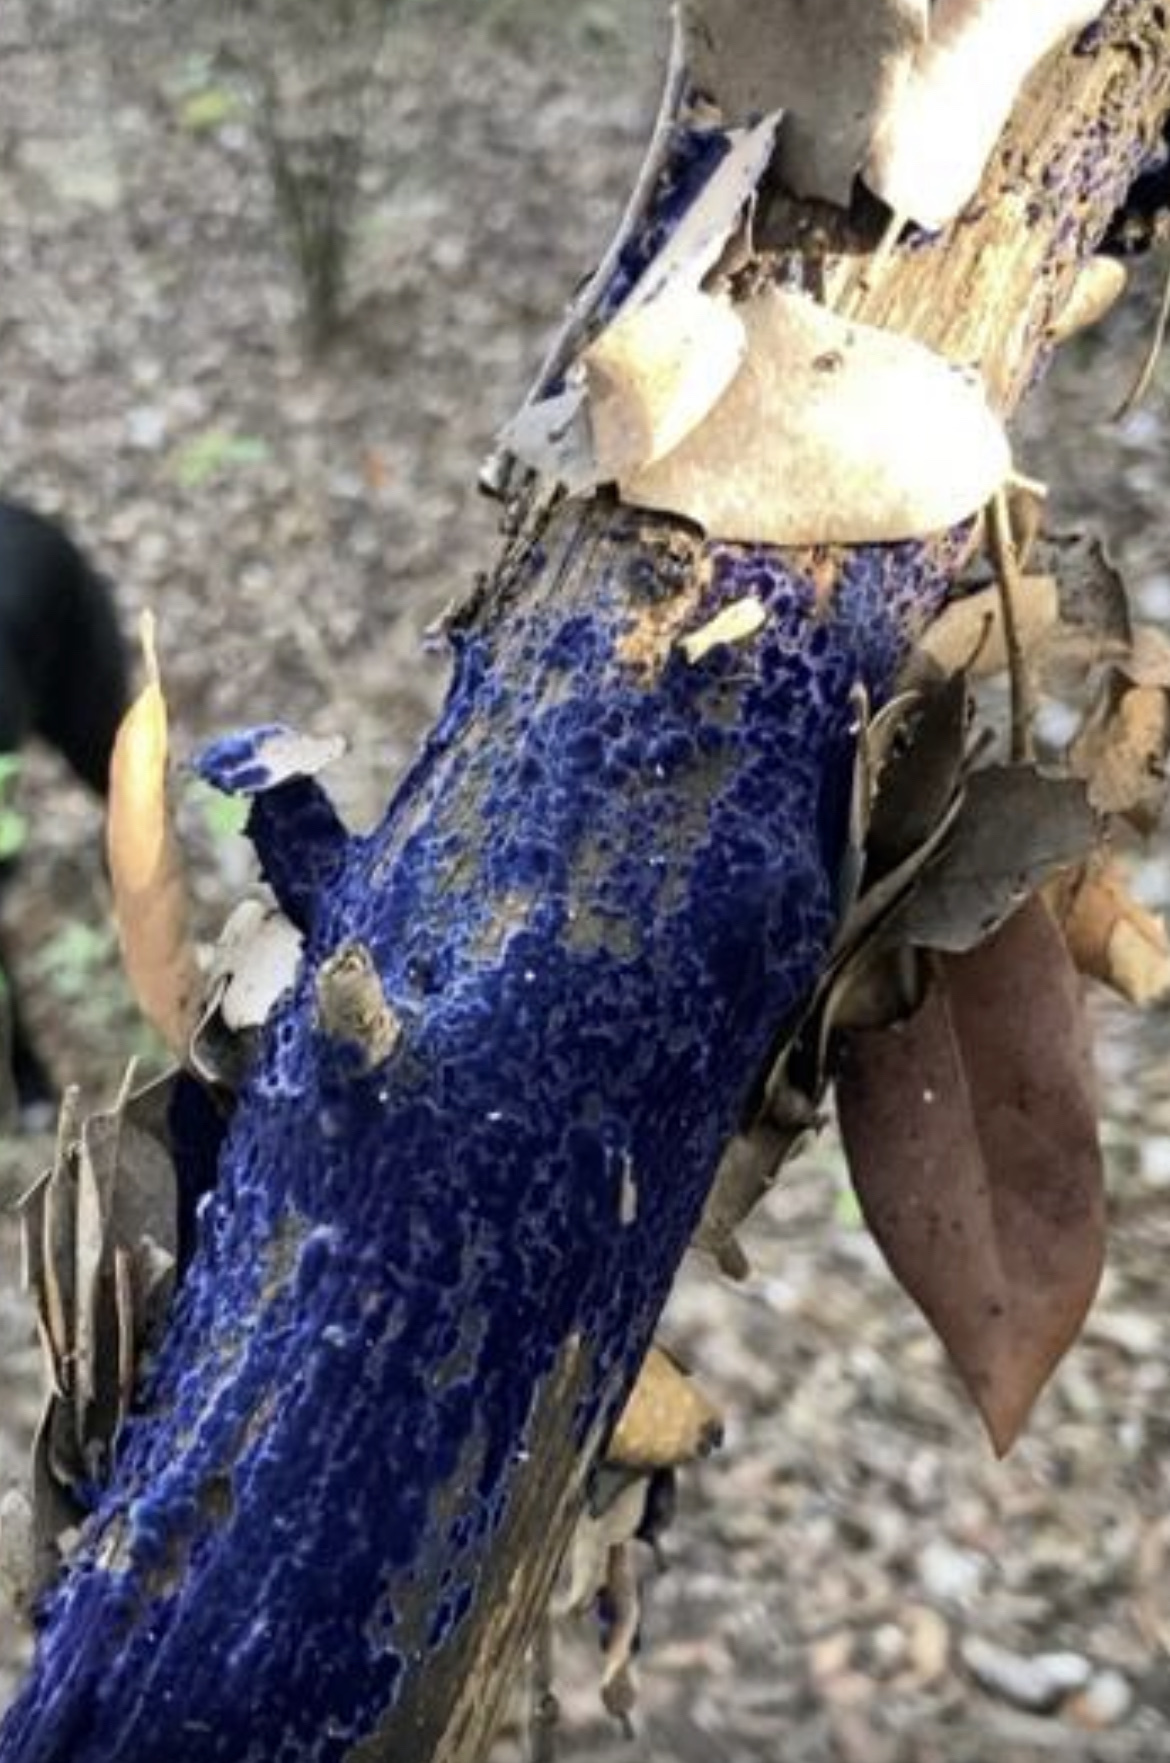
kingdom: Fungi
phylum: Basidiomycota
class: Agaricomycetes
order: Polyporales
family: Phanerochaetaceae
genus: Terana
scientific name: Terana coerulea
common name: Cobalt crust
